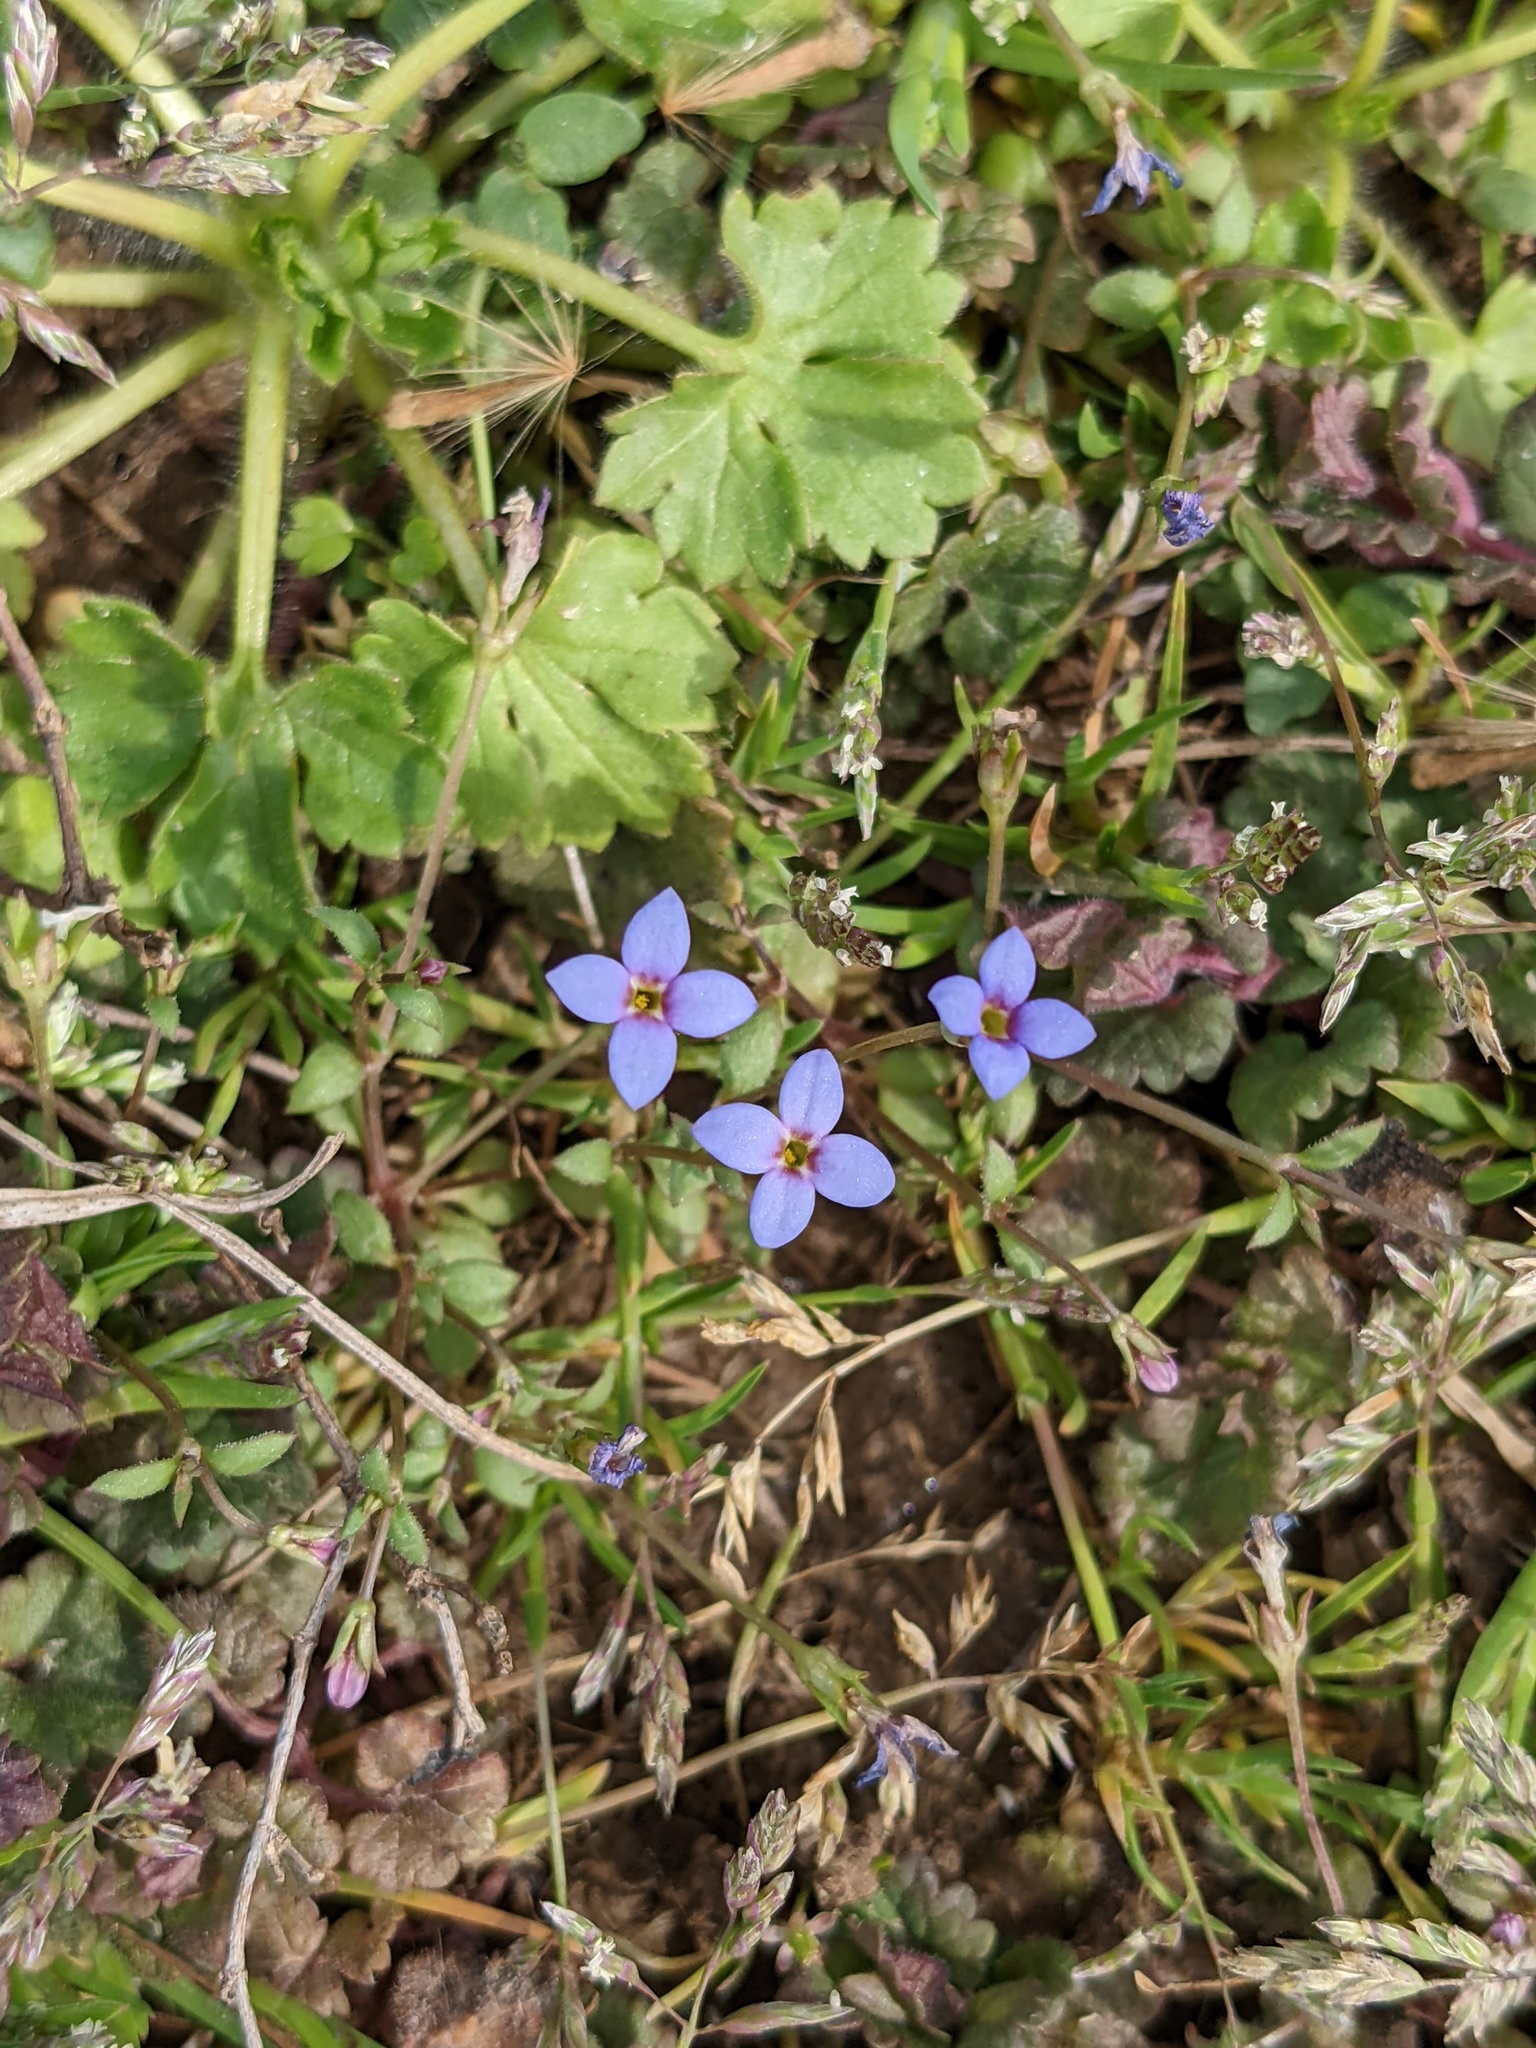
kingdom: Plantae
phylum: Tracheophyta
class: Magnoliopsida
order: Gentianales
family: Rubiaceae
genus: Houstonia
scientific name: Houstonia pusilla
